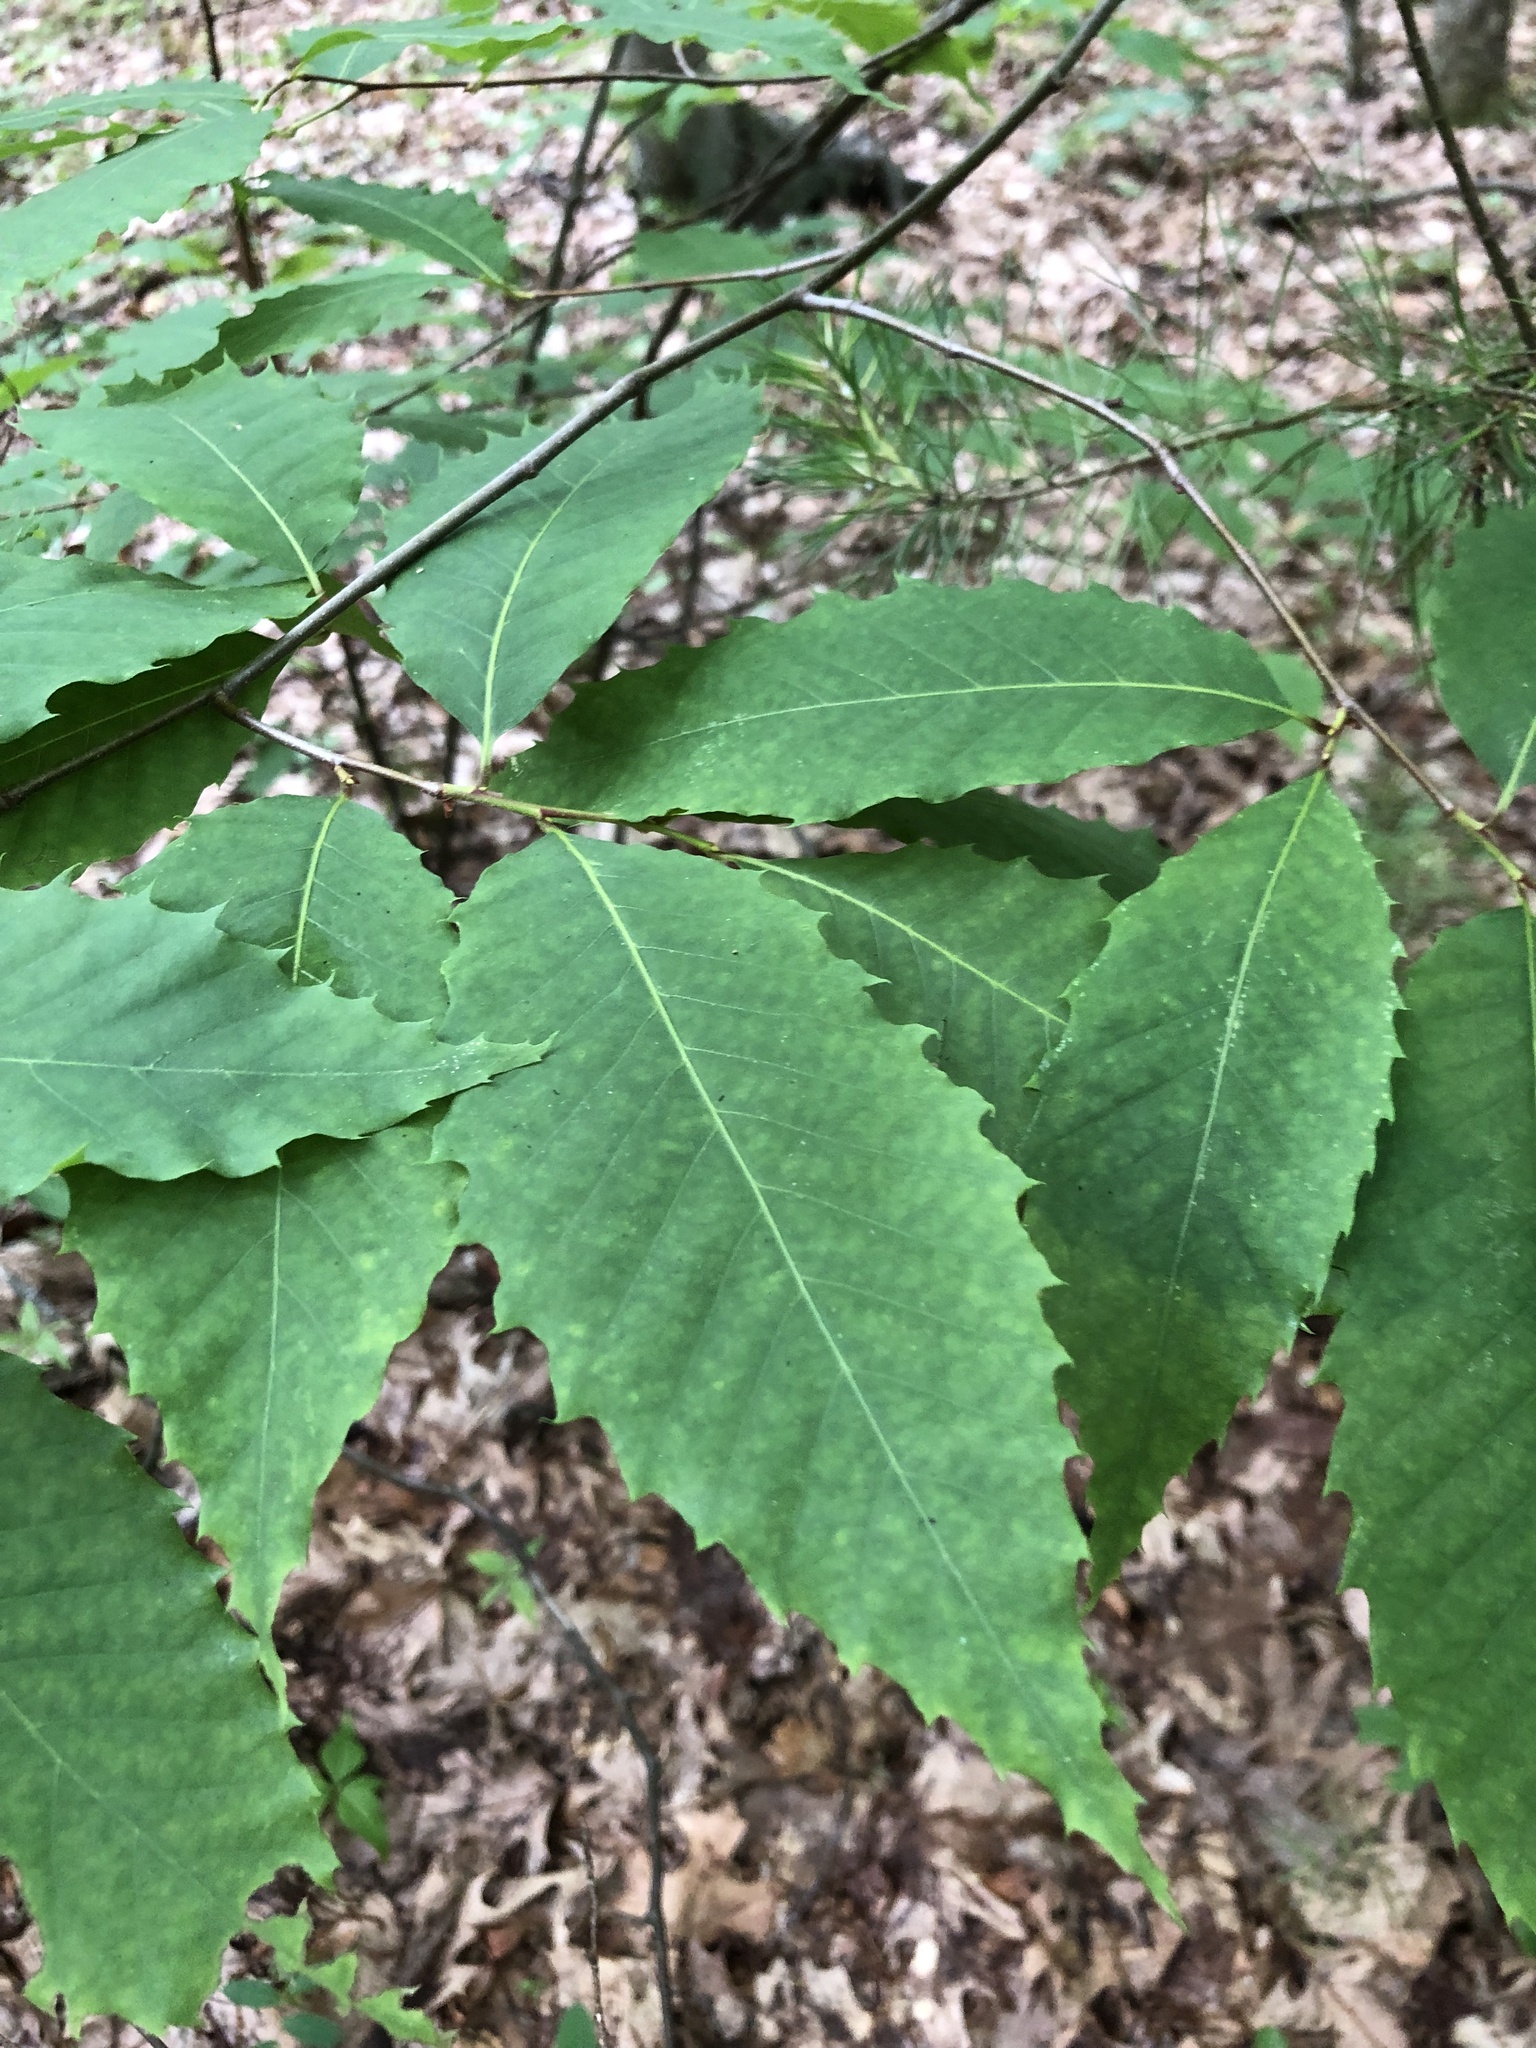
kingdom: Plantae
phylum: Tracheophyta
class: Magnoliopsida
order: Fagales
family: Fagaceae
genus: Castanea
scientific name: Castanea dentata
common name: American chestnut
